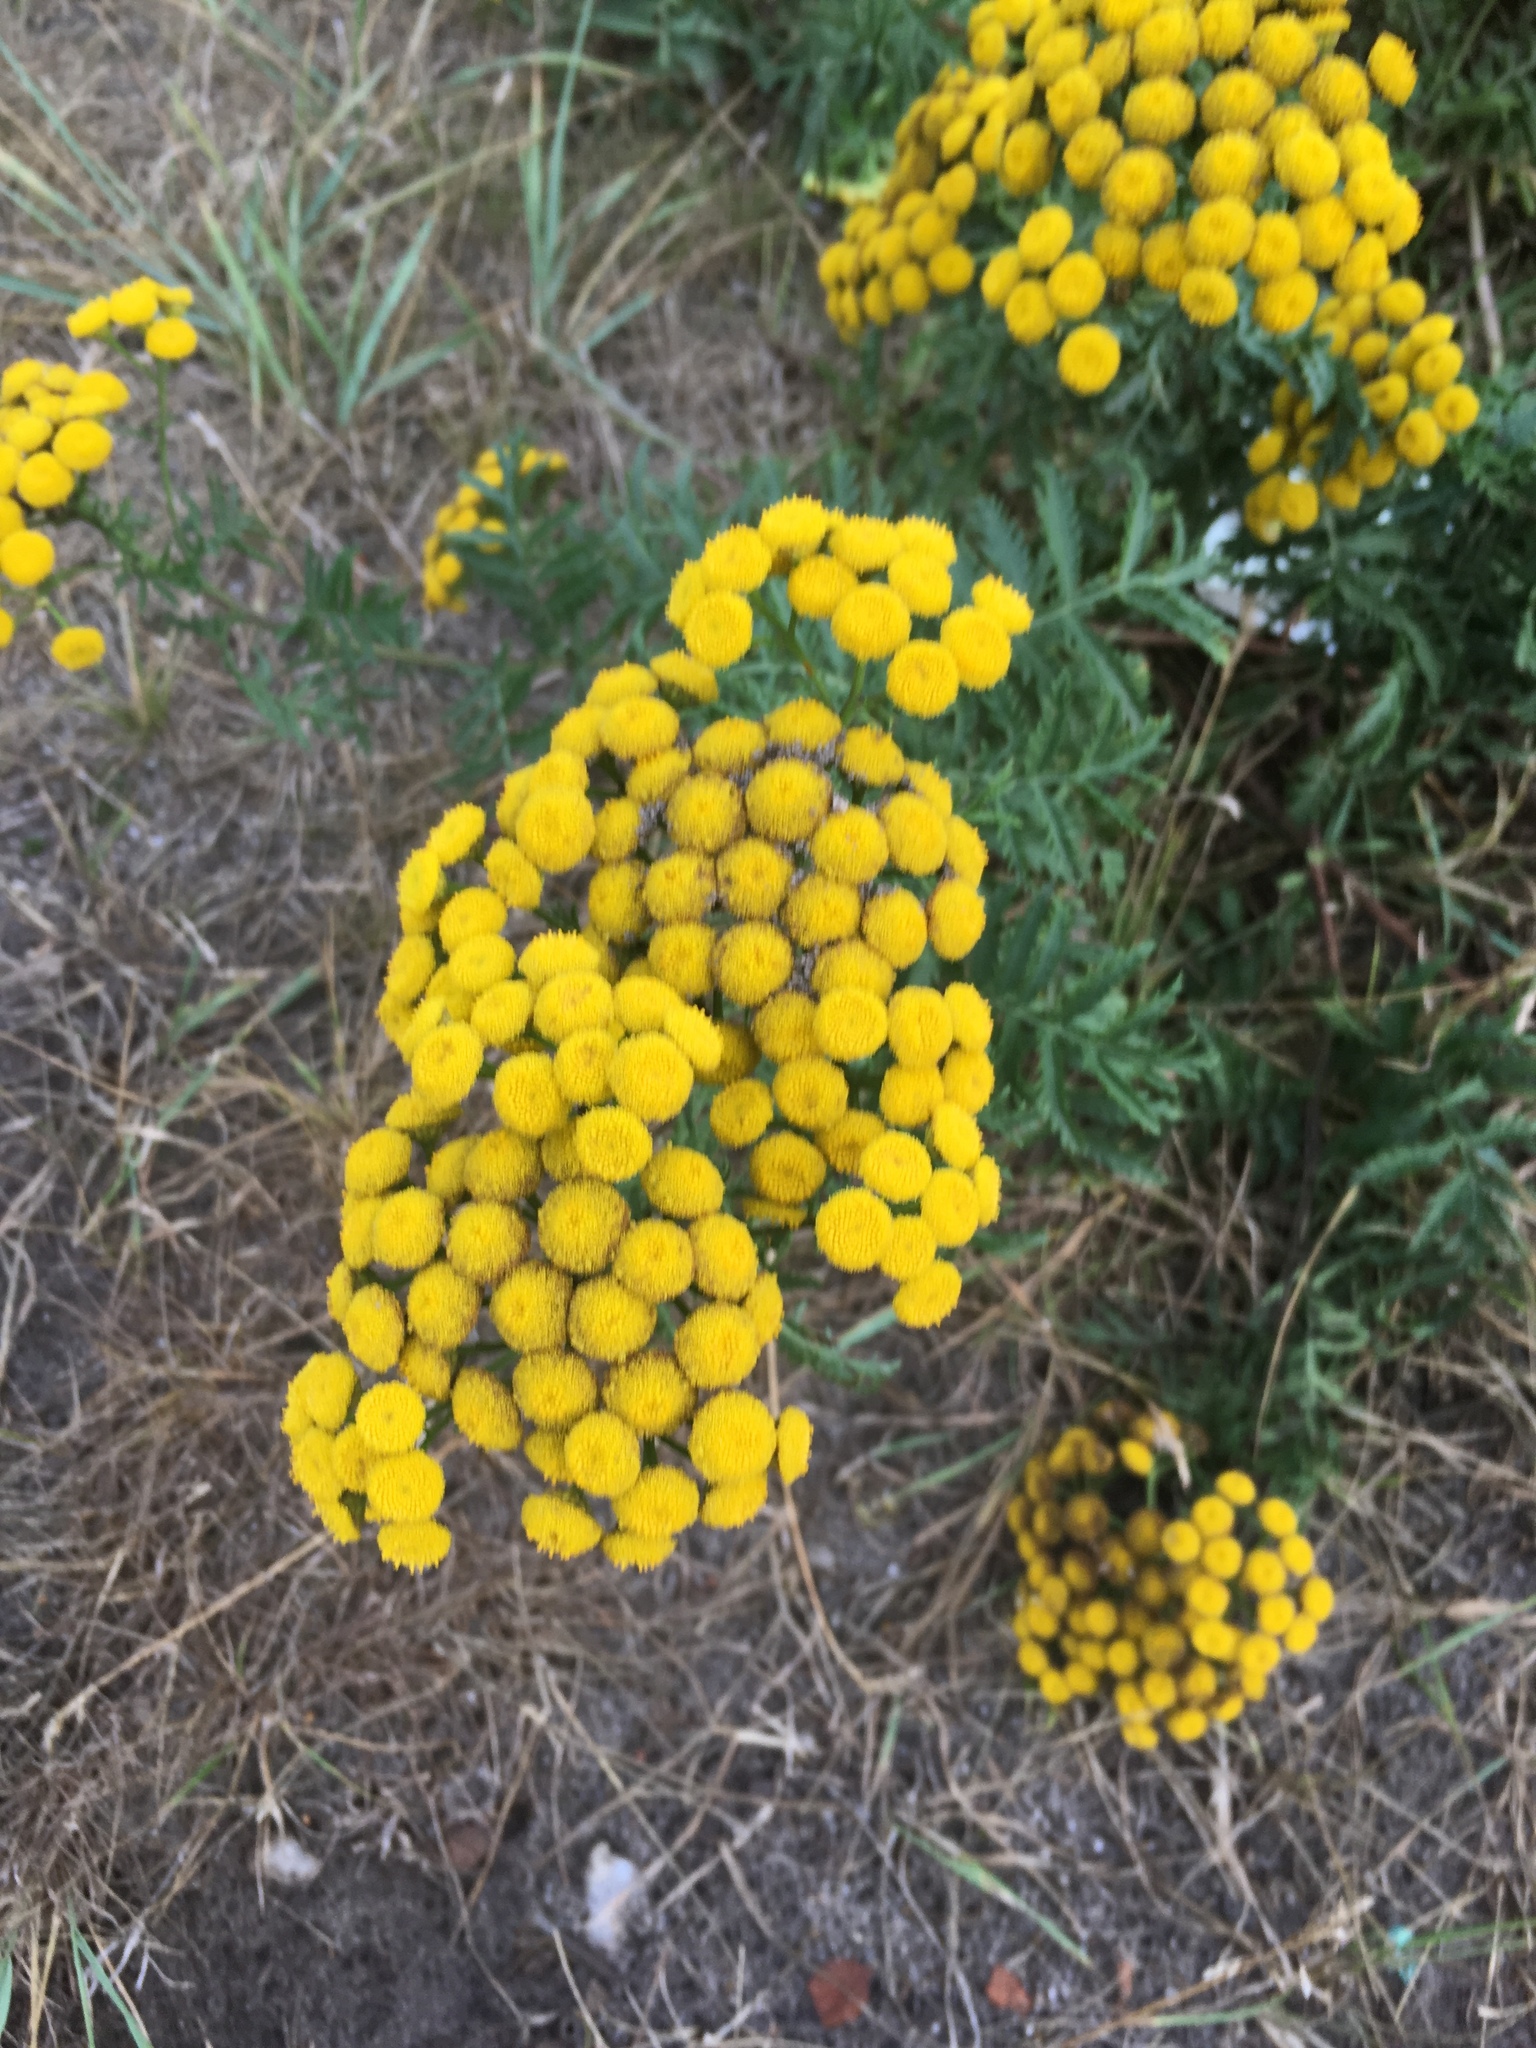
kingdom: Plantae
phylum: Tracheophyta
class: Magnoliopsida
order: Asterales
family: Asteraceae
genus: Tanacetum
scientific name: Tanacetum vulgare
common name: Common tansy
